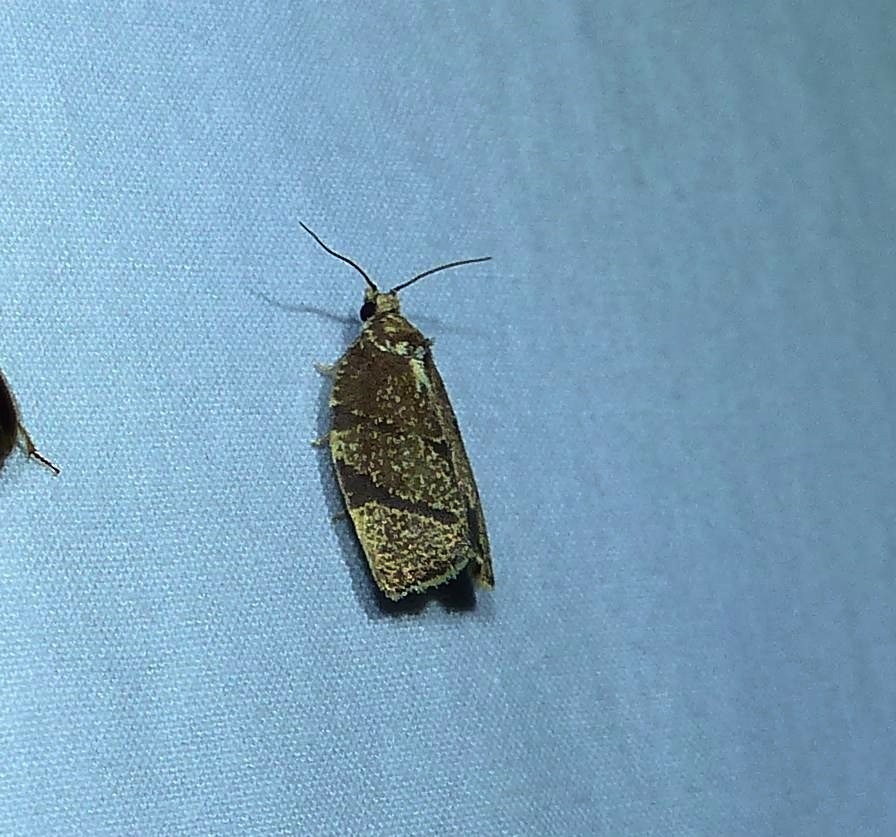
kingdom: Animalia
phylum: Arthropoda
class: Insecta
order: Lepidoptera
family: Tortricidae
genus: Argyrotaenia
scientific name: Argyrotaenia juglandana
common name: Hickory leafroller moth
